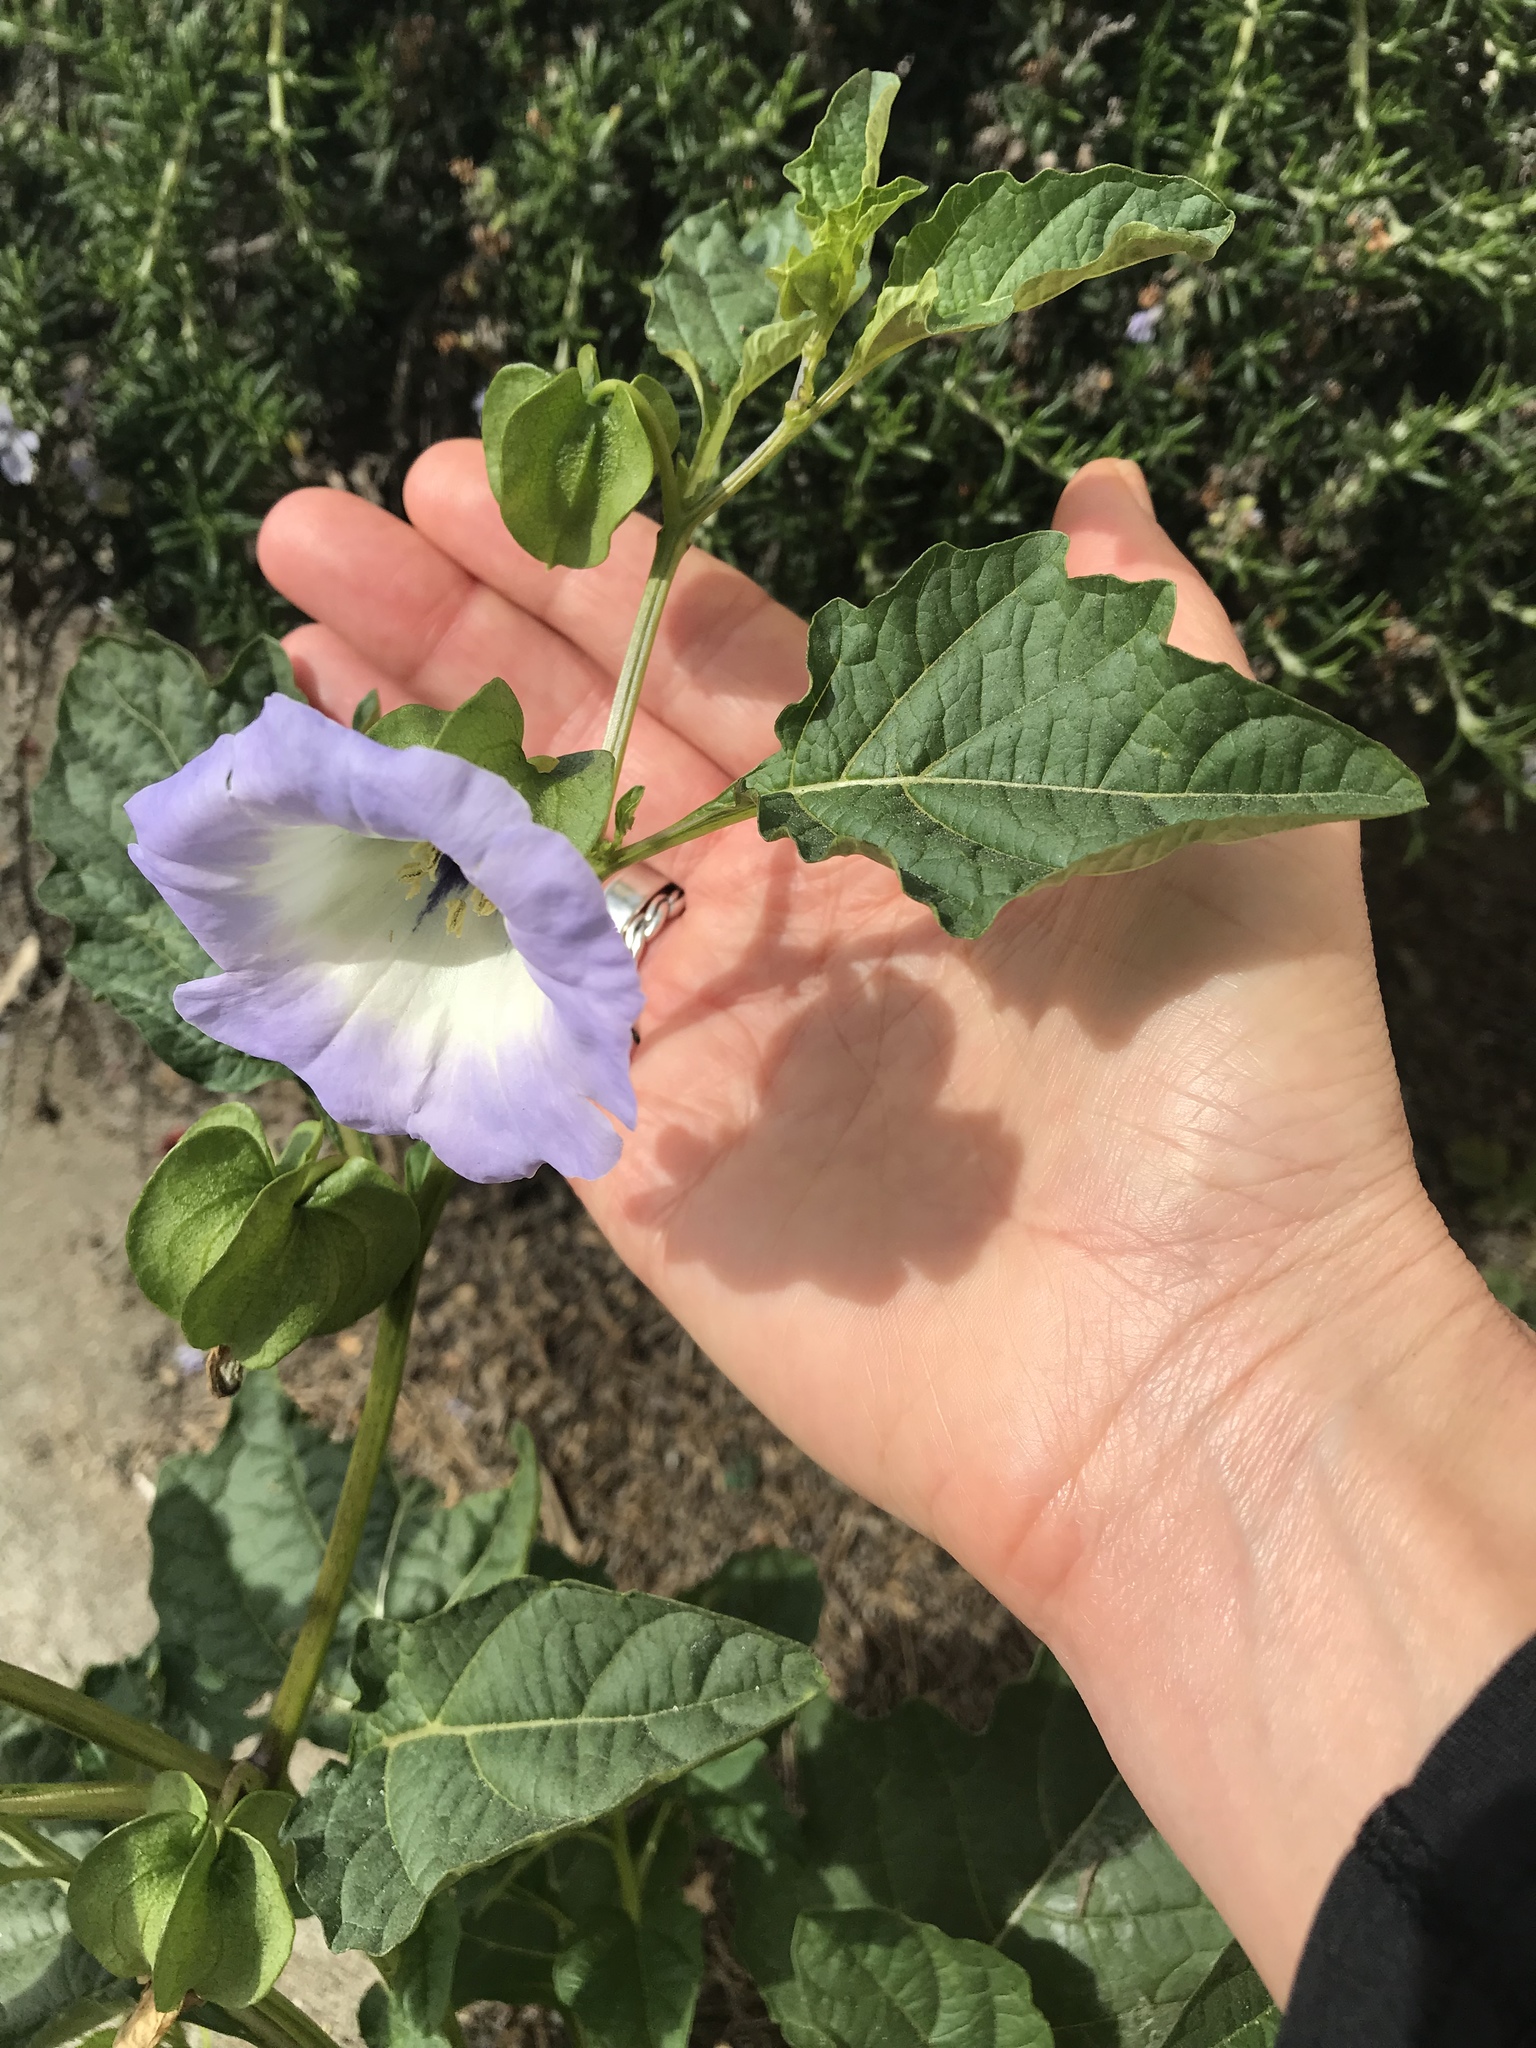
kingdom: Plantae
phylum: Tracheophyta
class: Magnoliopsida
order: Solanales
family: Solanaceae
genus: Nicandra
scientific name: Nicandra physalodes
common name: Apple-of-peru
